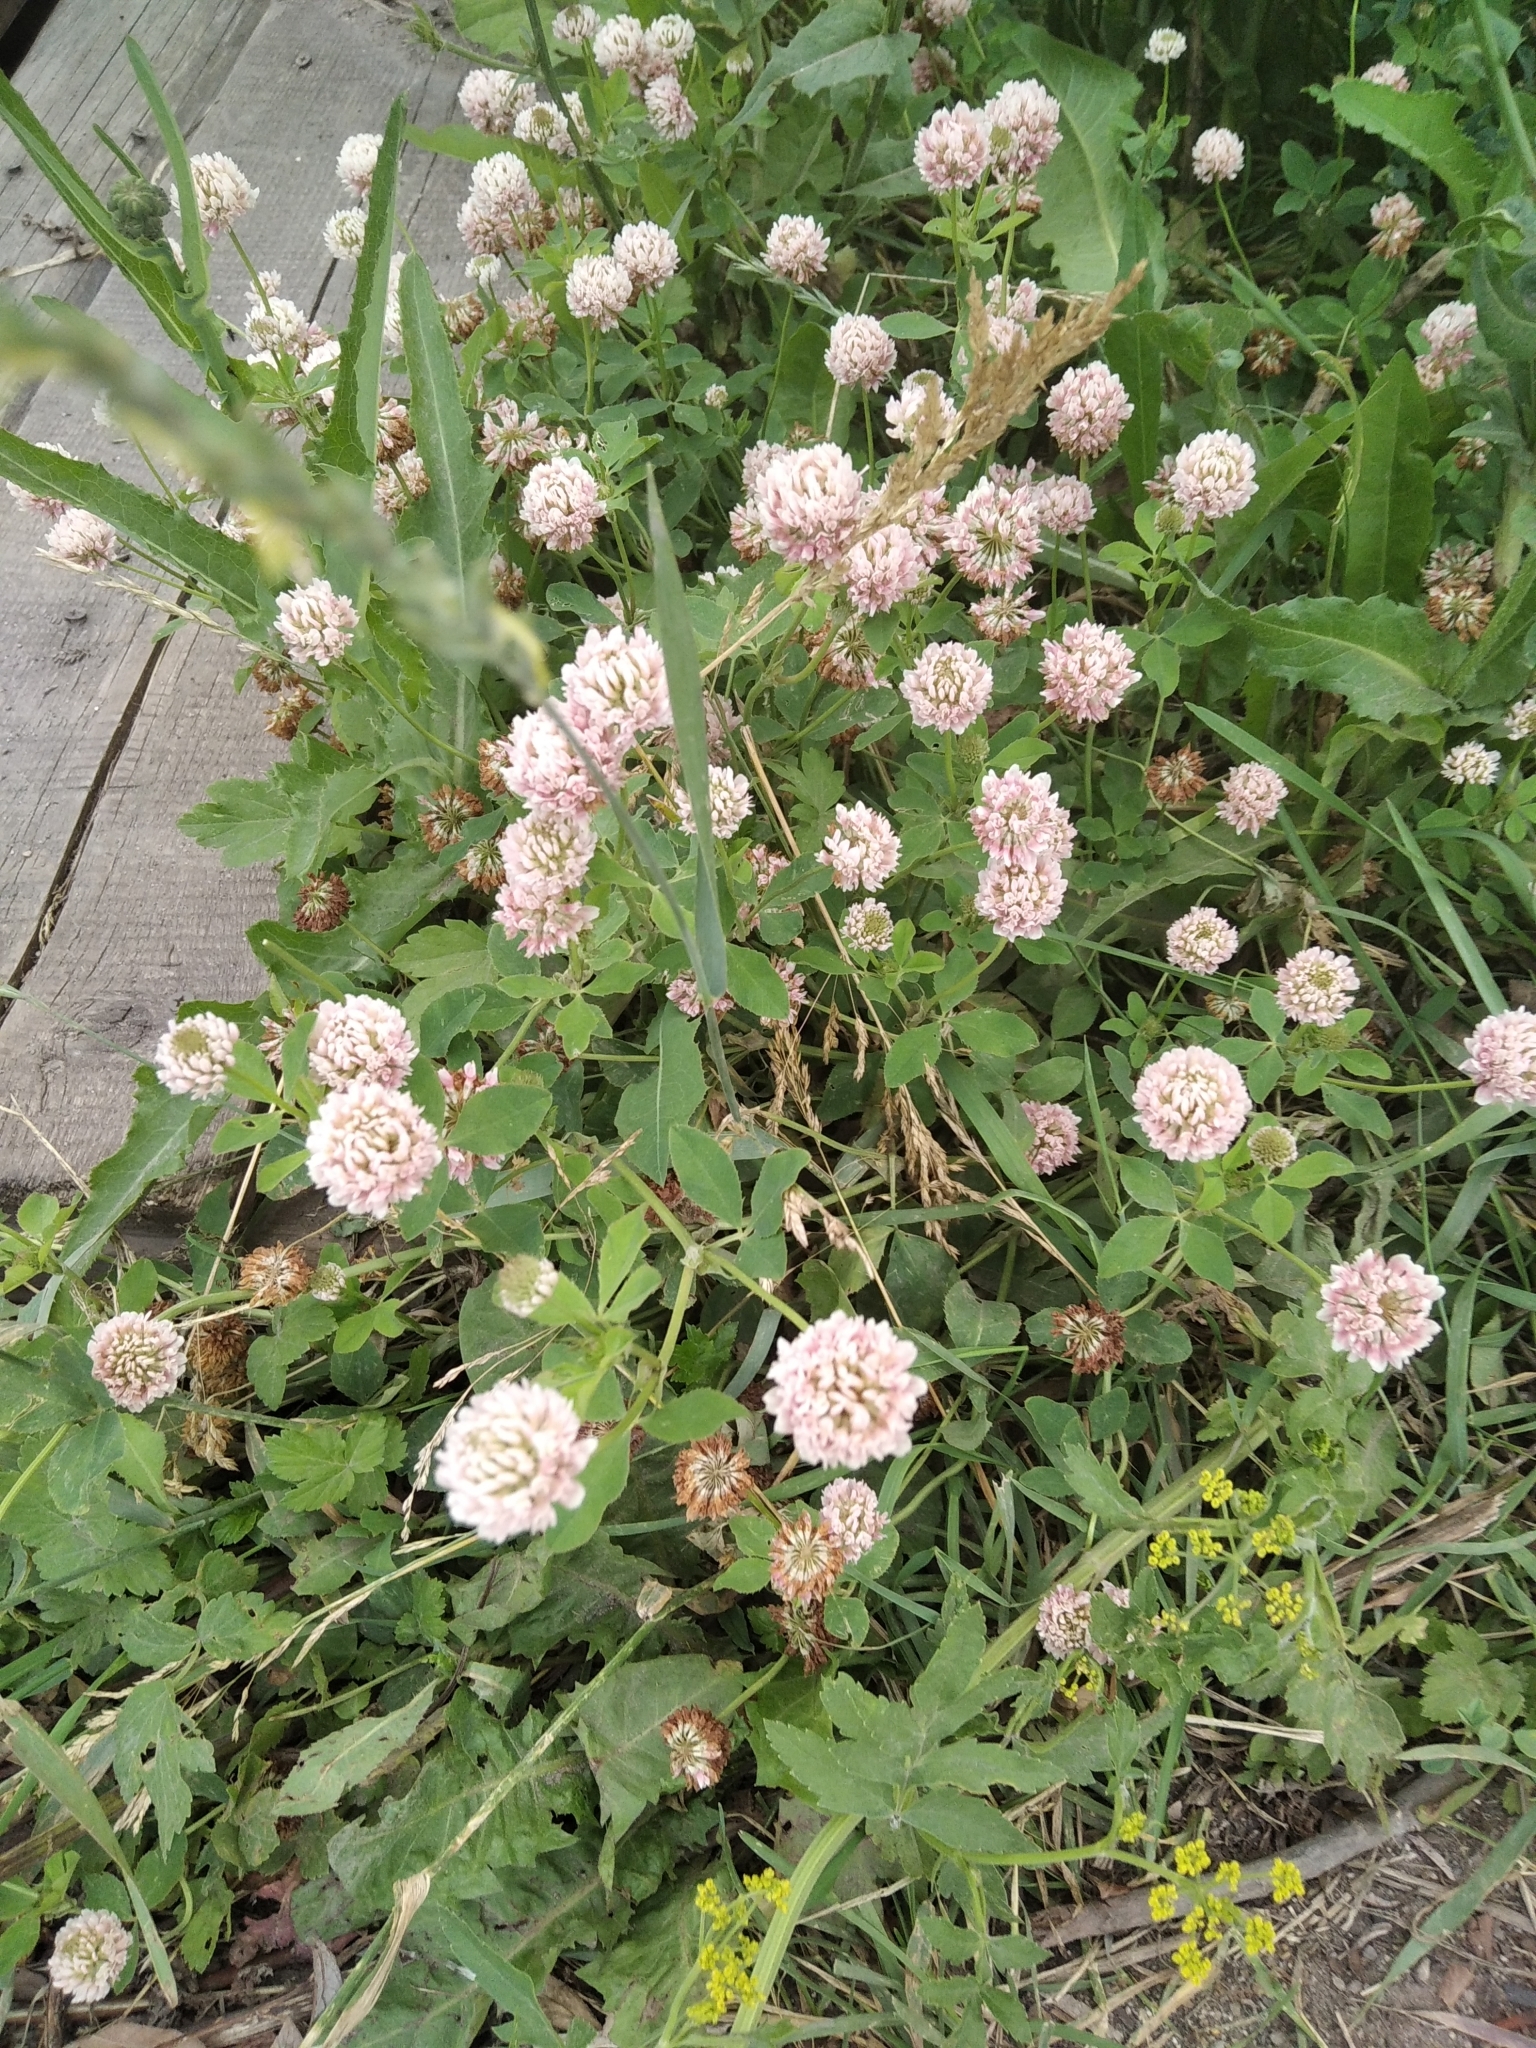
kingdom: Plantae
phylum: Tracheophyta
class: Magnoliopsida
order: Fabales
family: Fabaceae
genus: Trifolium
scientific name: Trifolium hybridum
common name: Alsike clover
